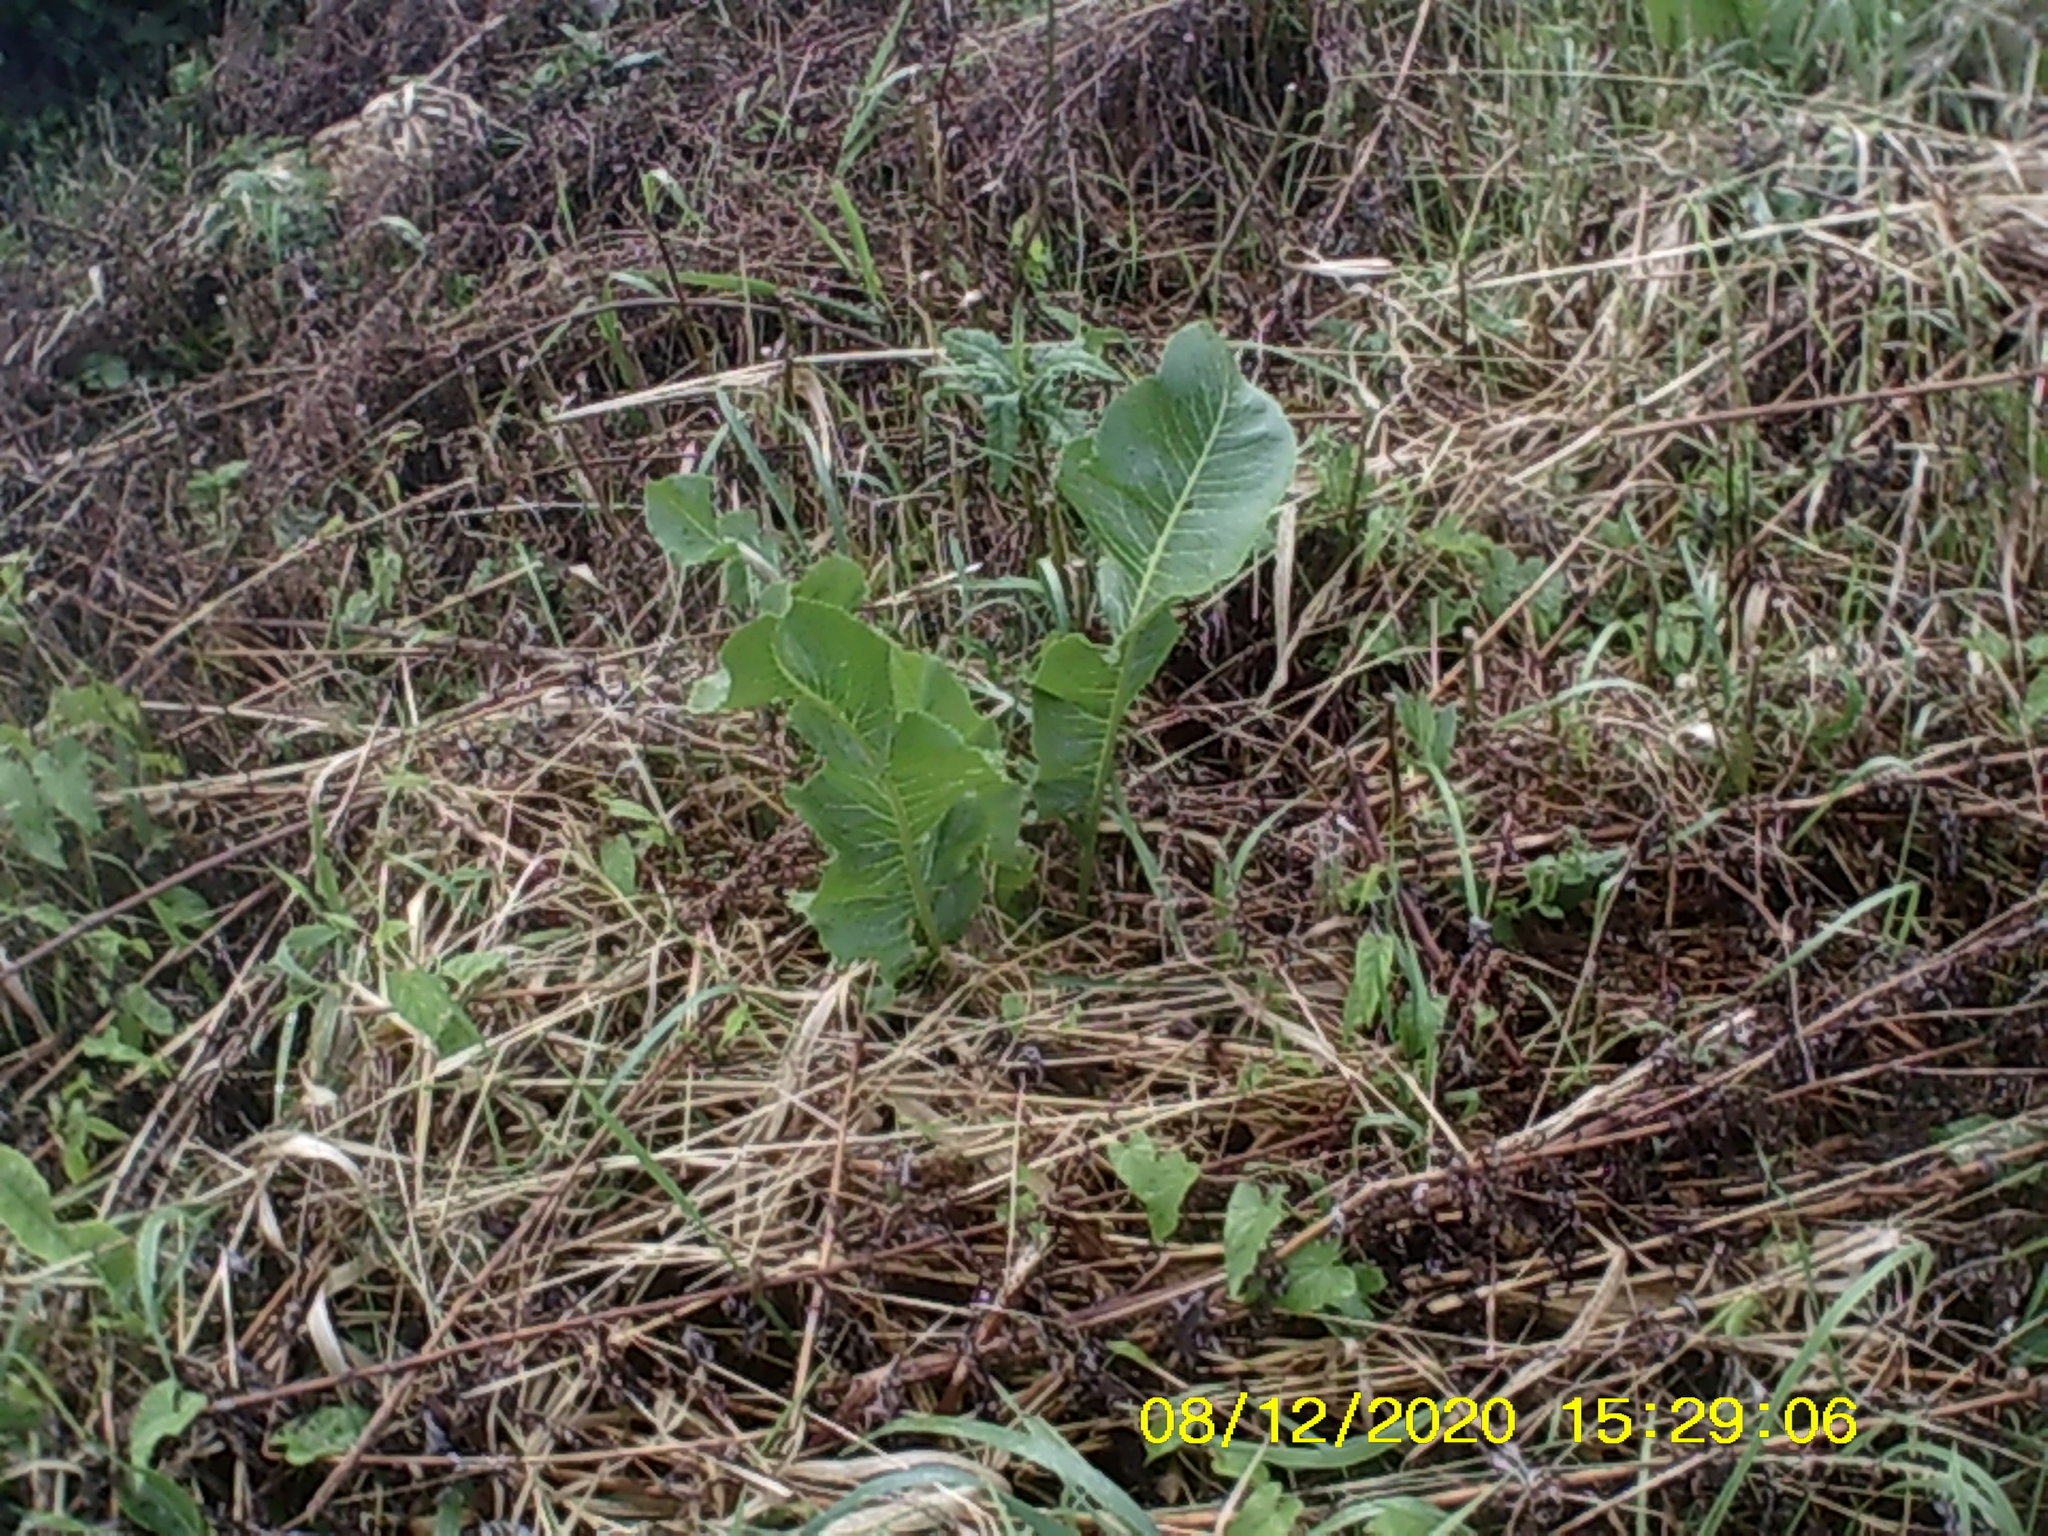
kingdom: Plantae
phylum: Tracheophyta
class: Magnoliopsida
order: Brassicales
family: Brassicaceae
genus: Armoracia
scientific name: Armoracia rusticana
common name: Horseradish
